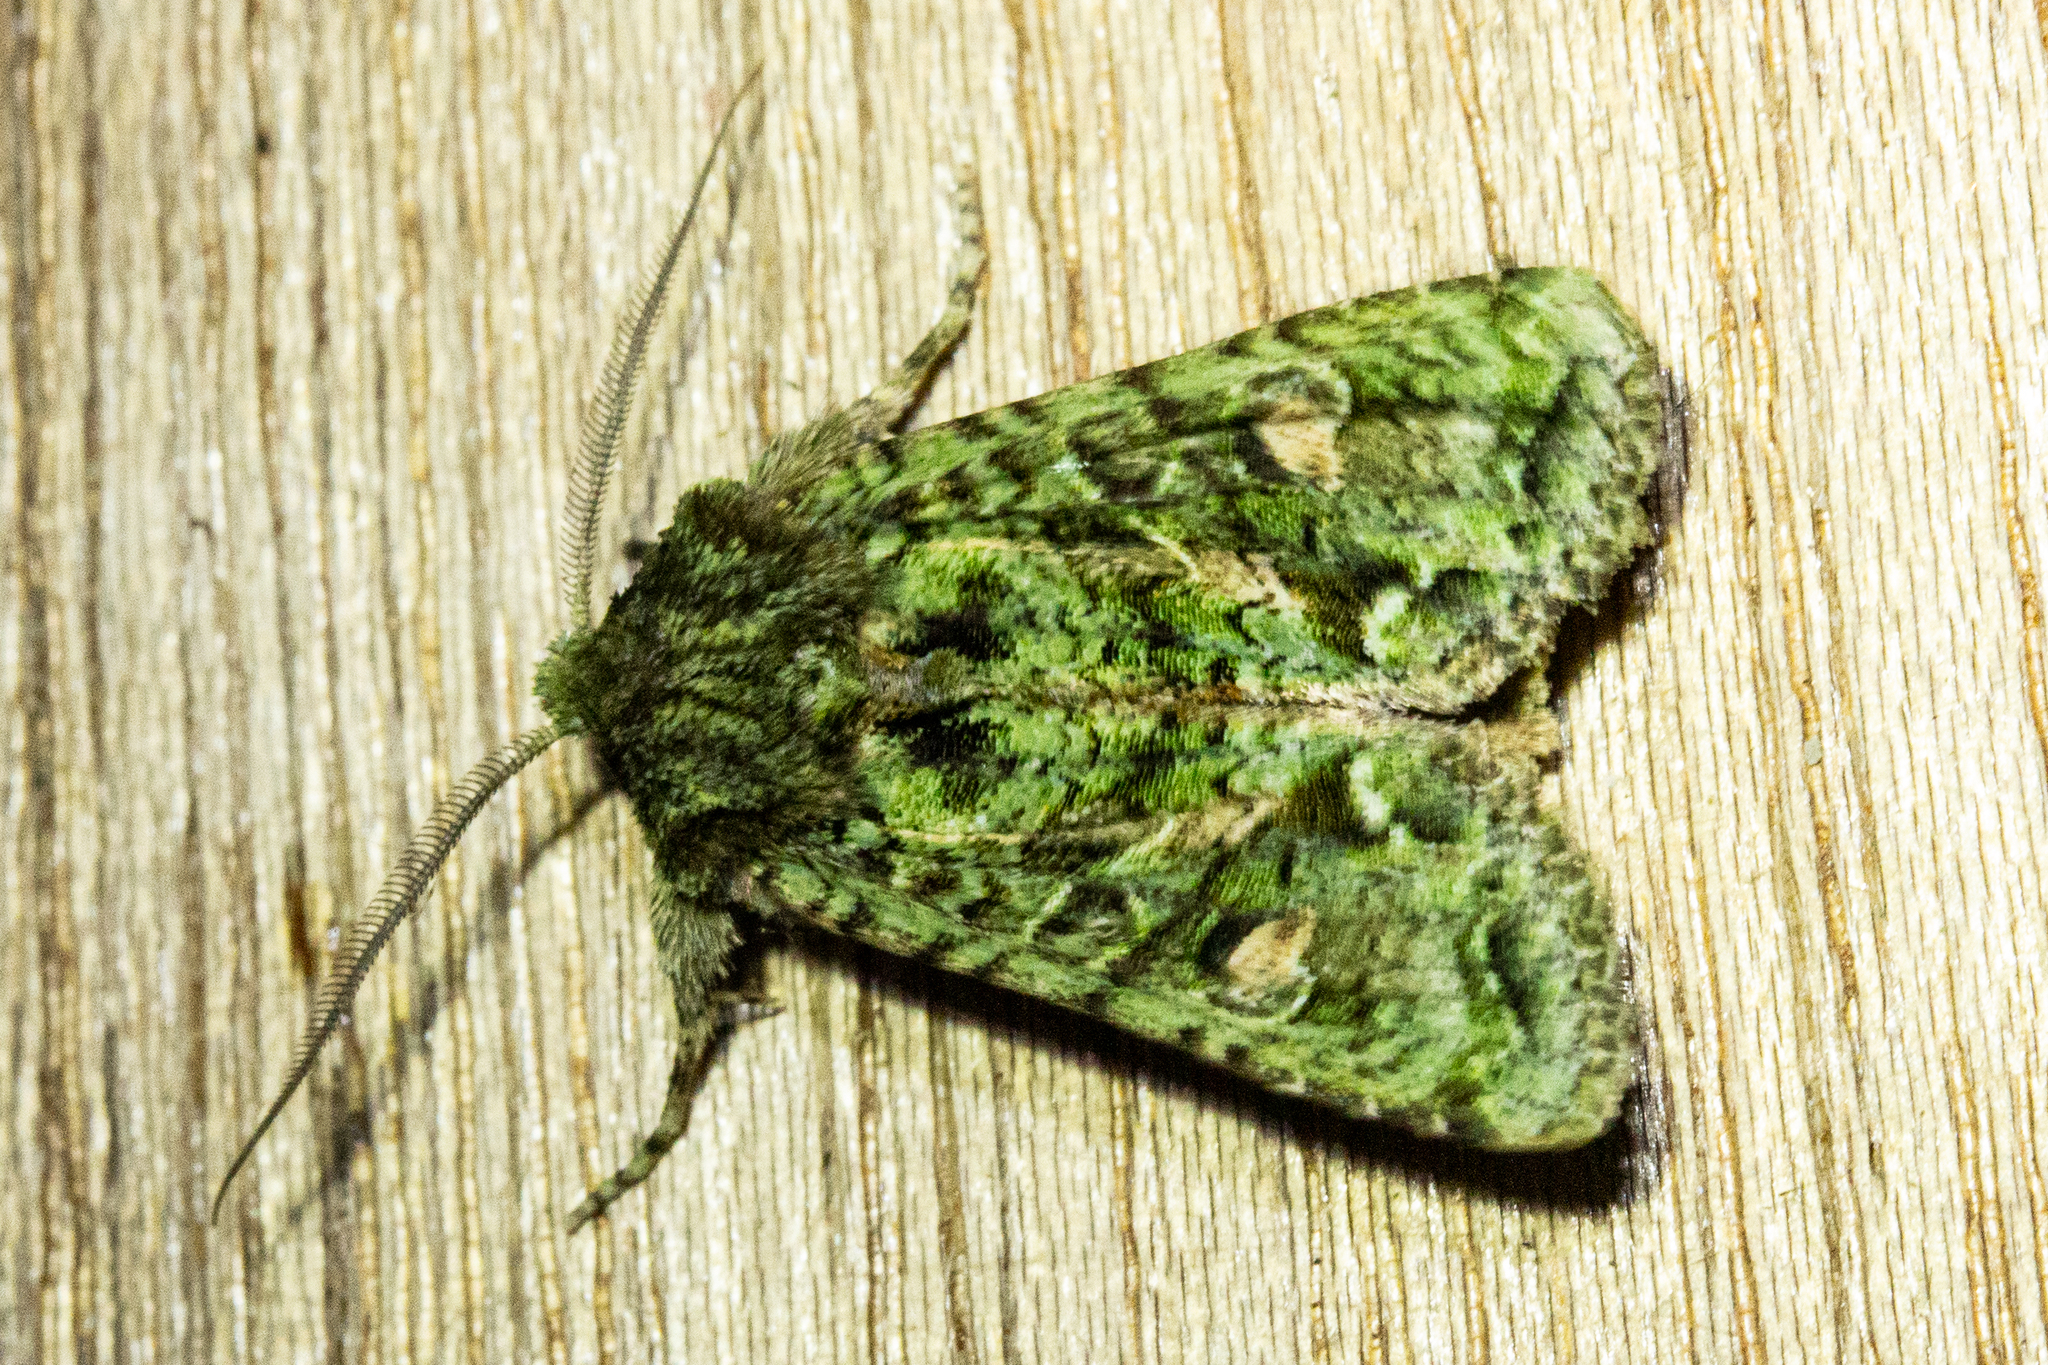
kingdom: Animalia
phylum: Arthropoda
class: Insecta
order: Lepidoptera
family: Noctuidae
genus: Ichneutica
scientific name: Ichneutica
